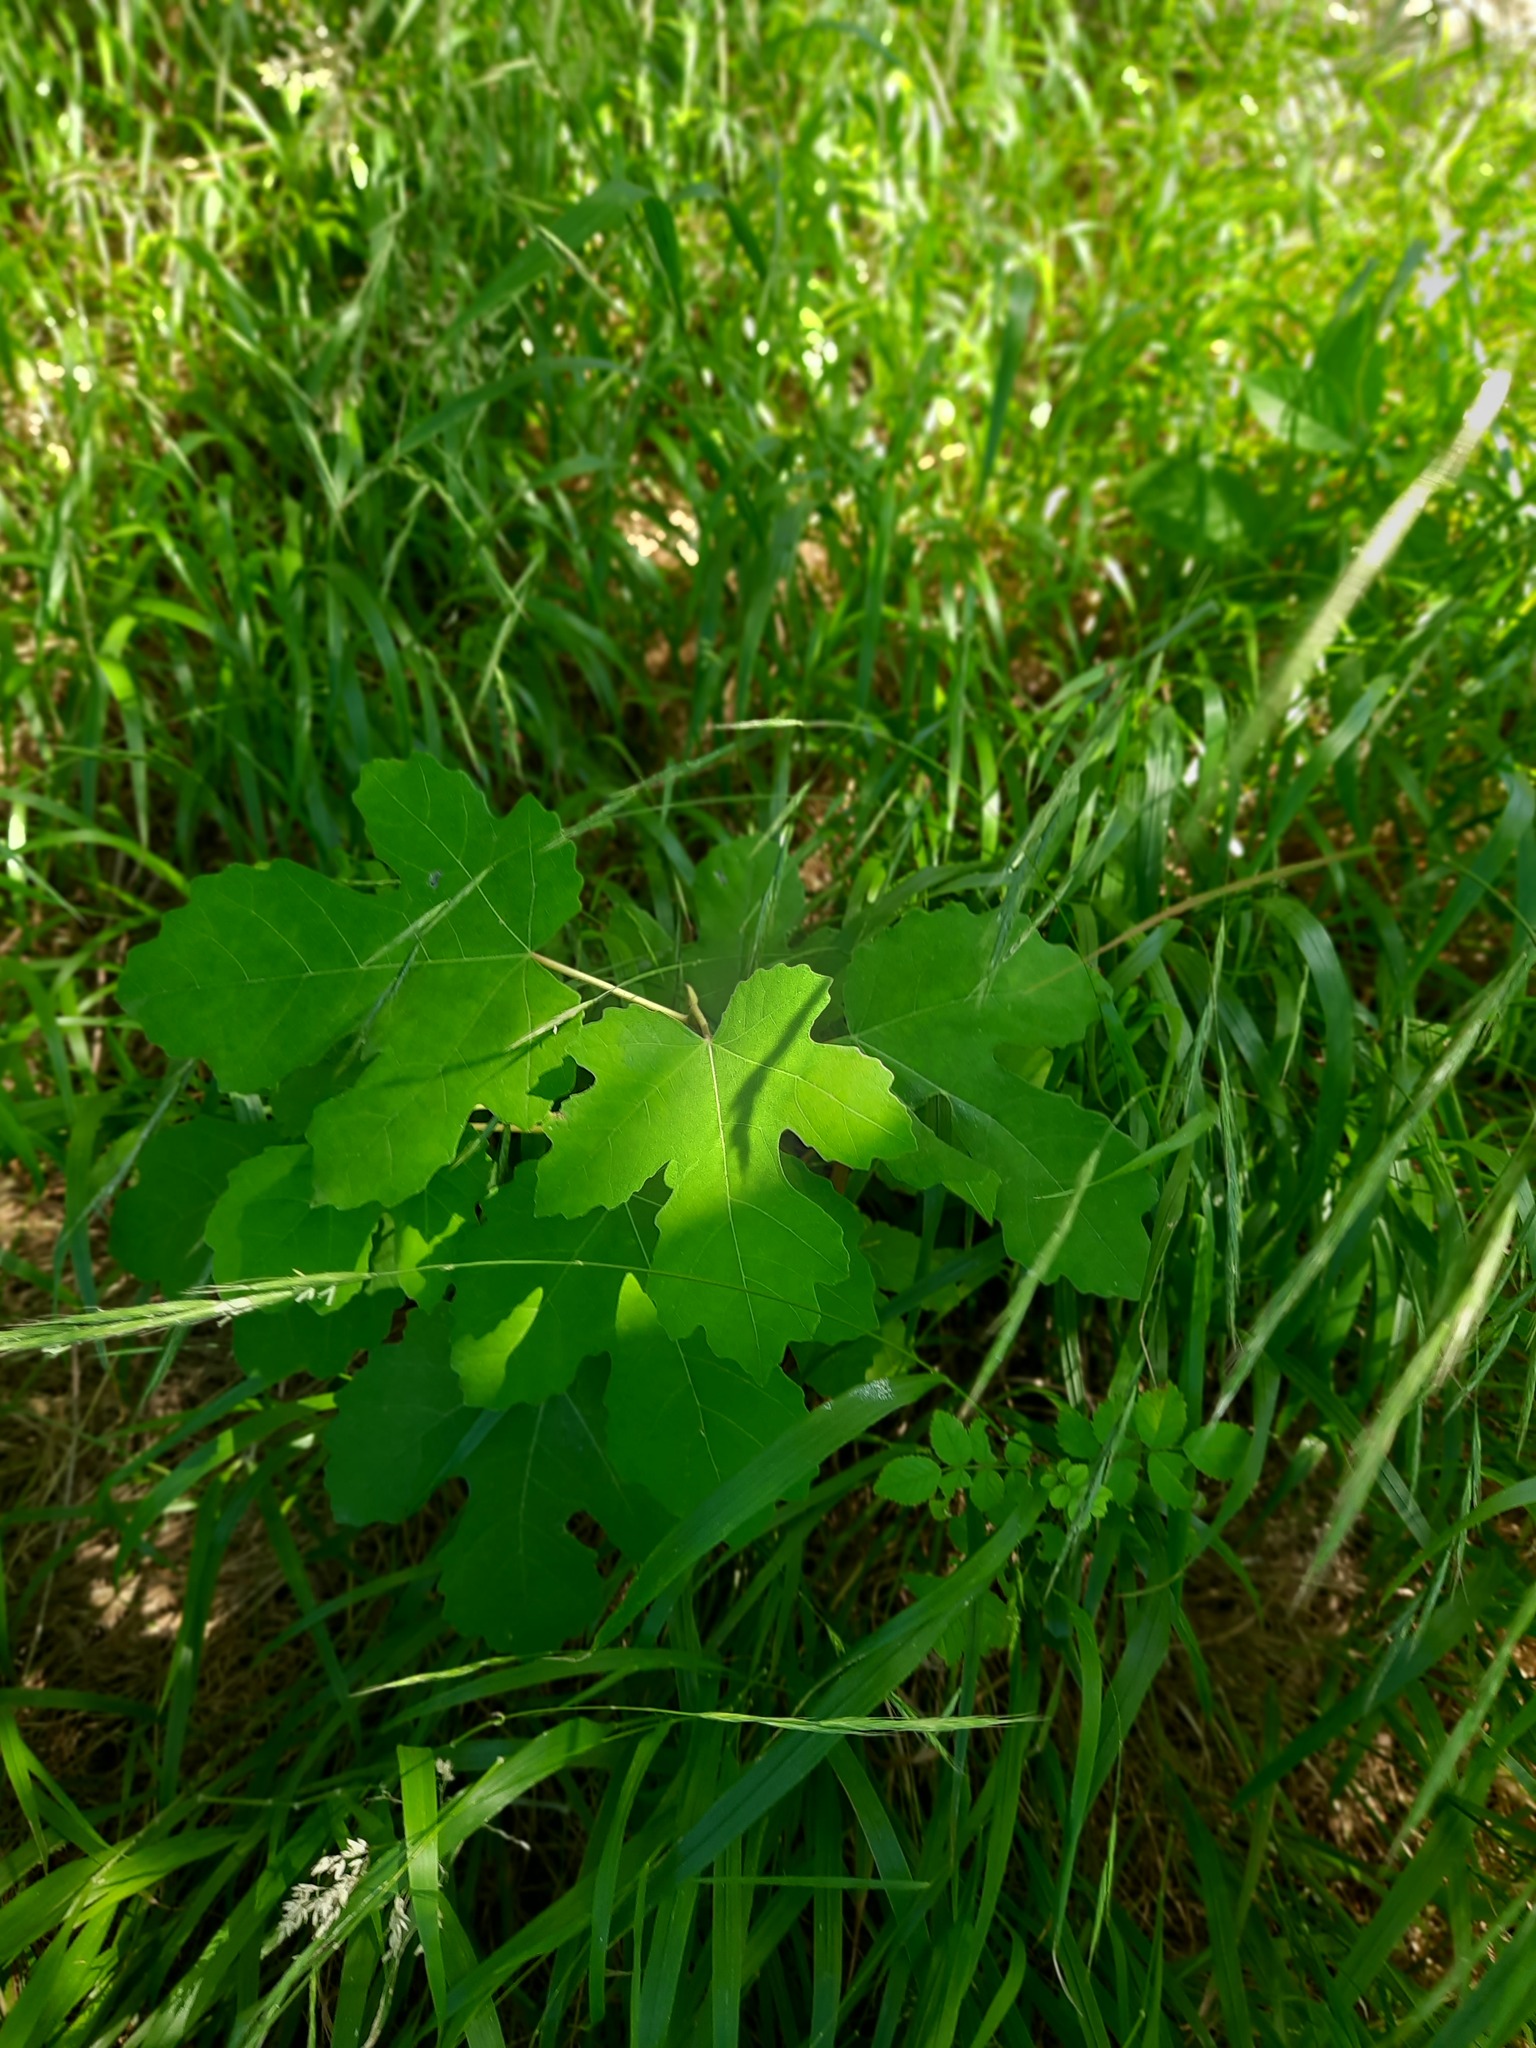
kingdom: Plantae
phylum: Tracheophyta
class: Magnoliopsida
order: Rosales
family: Moraceae
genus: Ficus
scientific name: Ficus carica
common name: Fig
